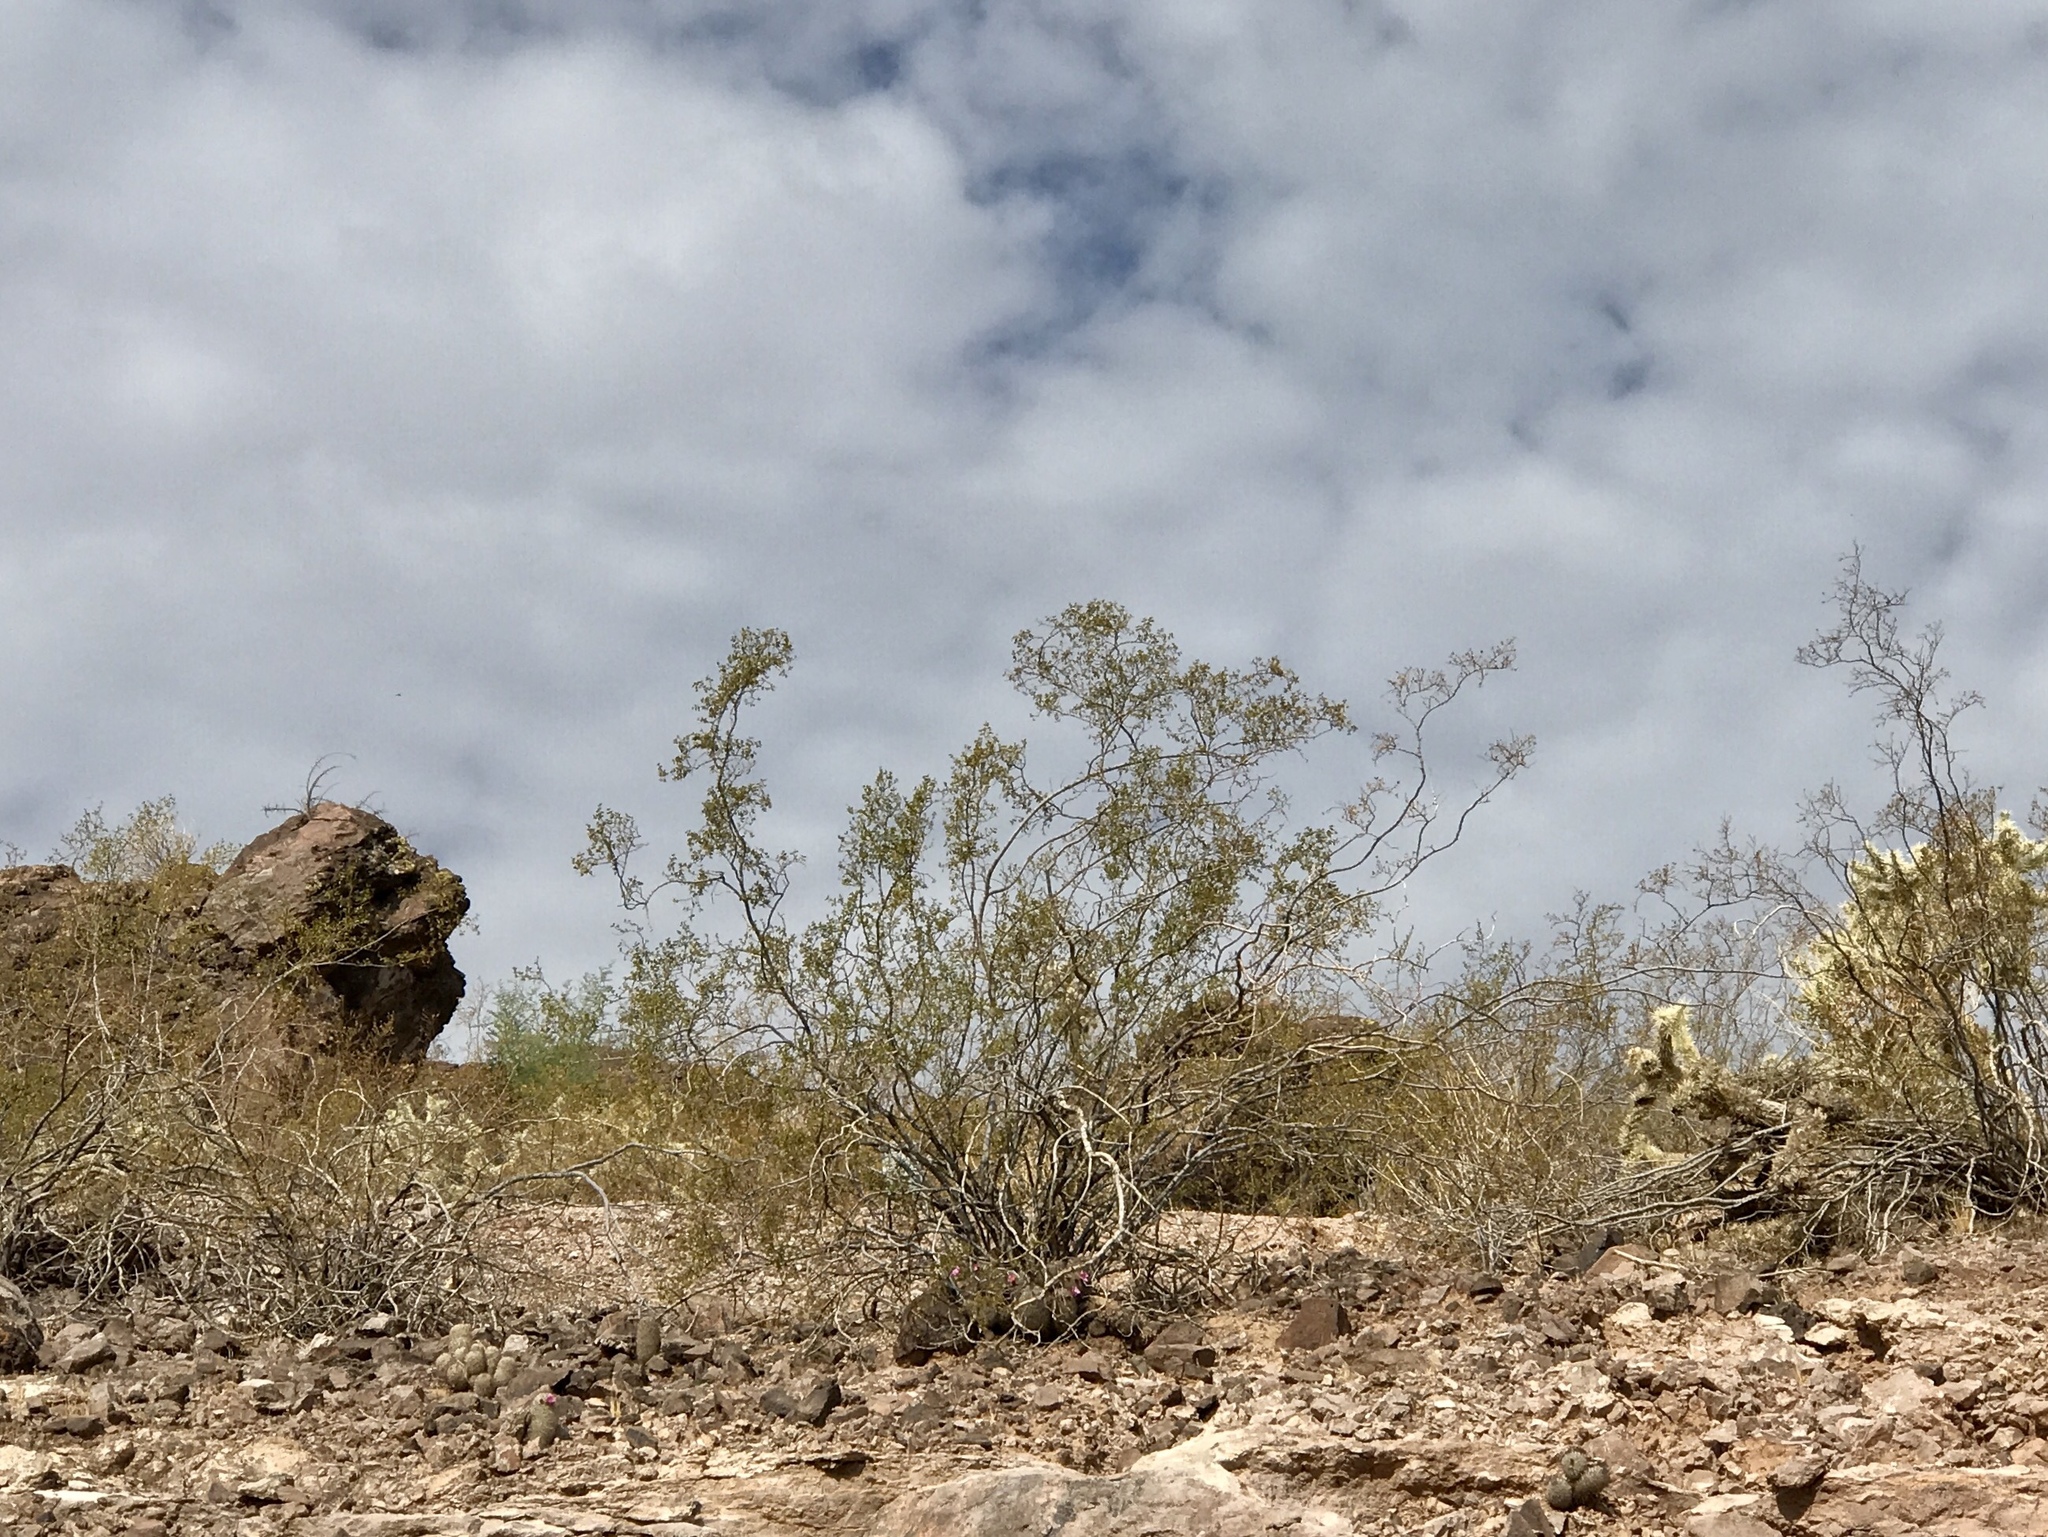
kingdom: Plantae
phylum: Tracheophyta
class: Magnoliopsida
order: Zygophyllales
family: Zygophyllaceae
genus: Larrea
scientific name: Larrea tridentata
